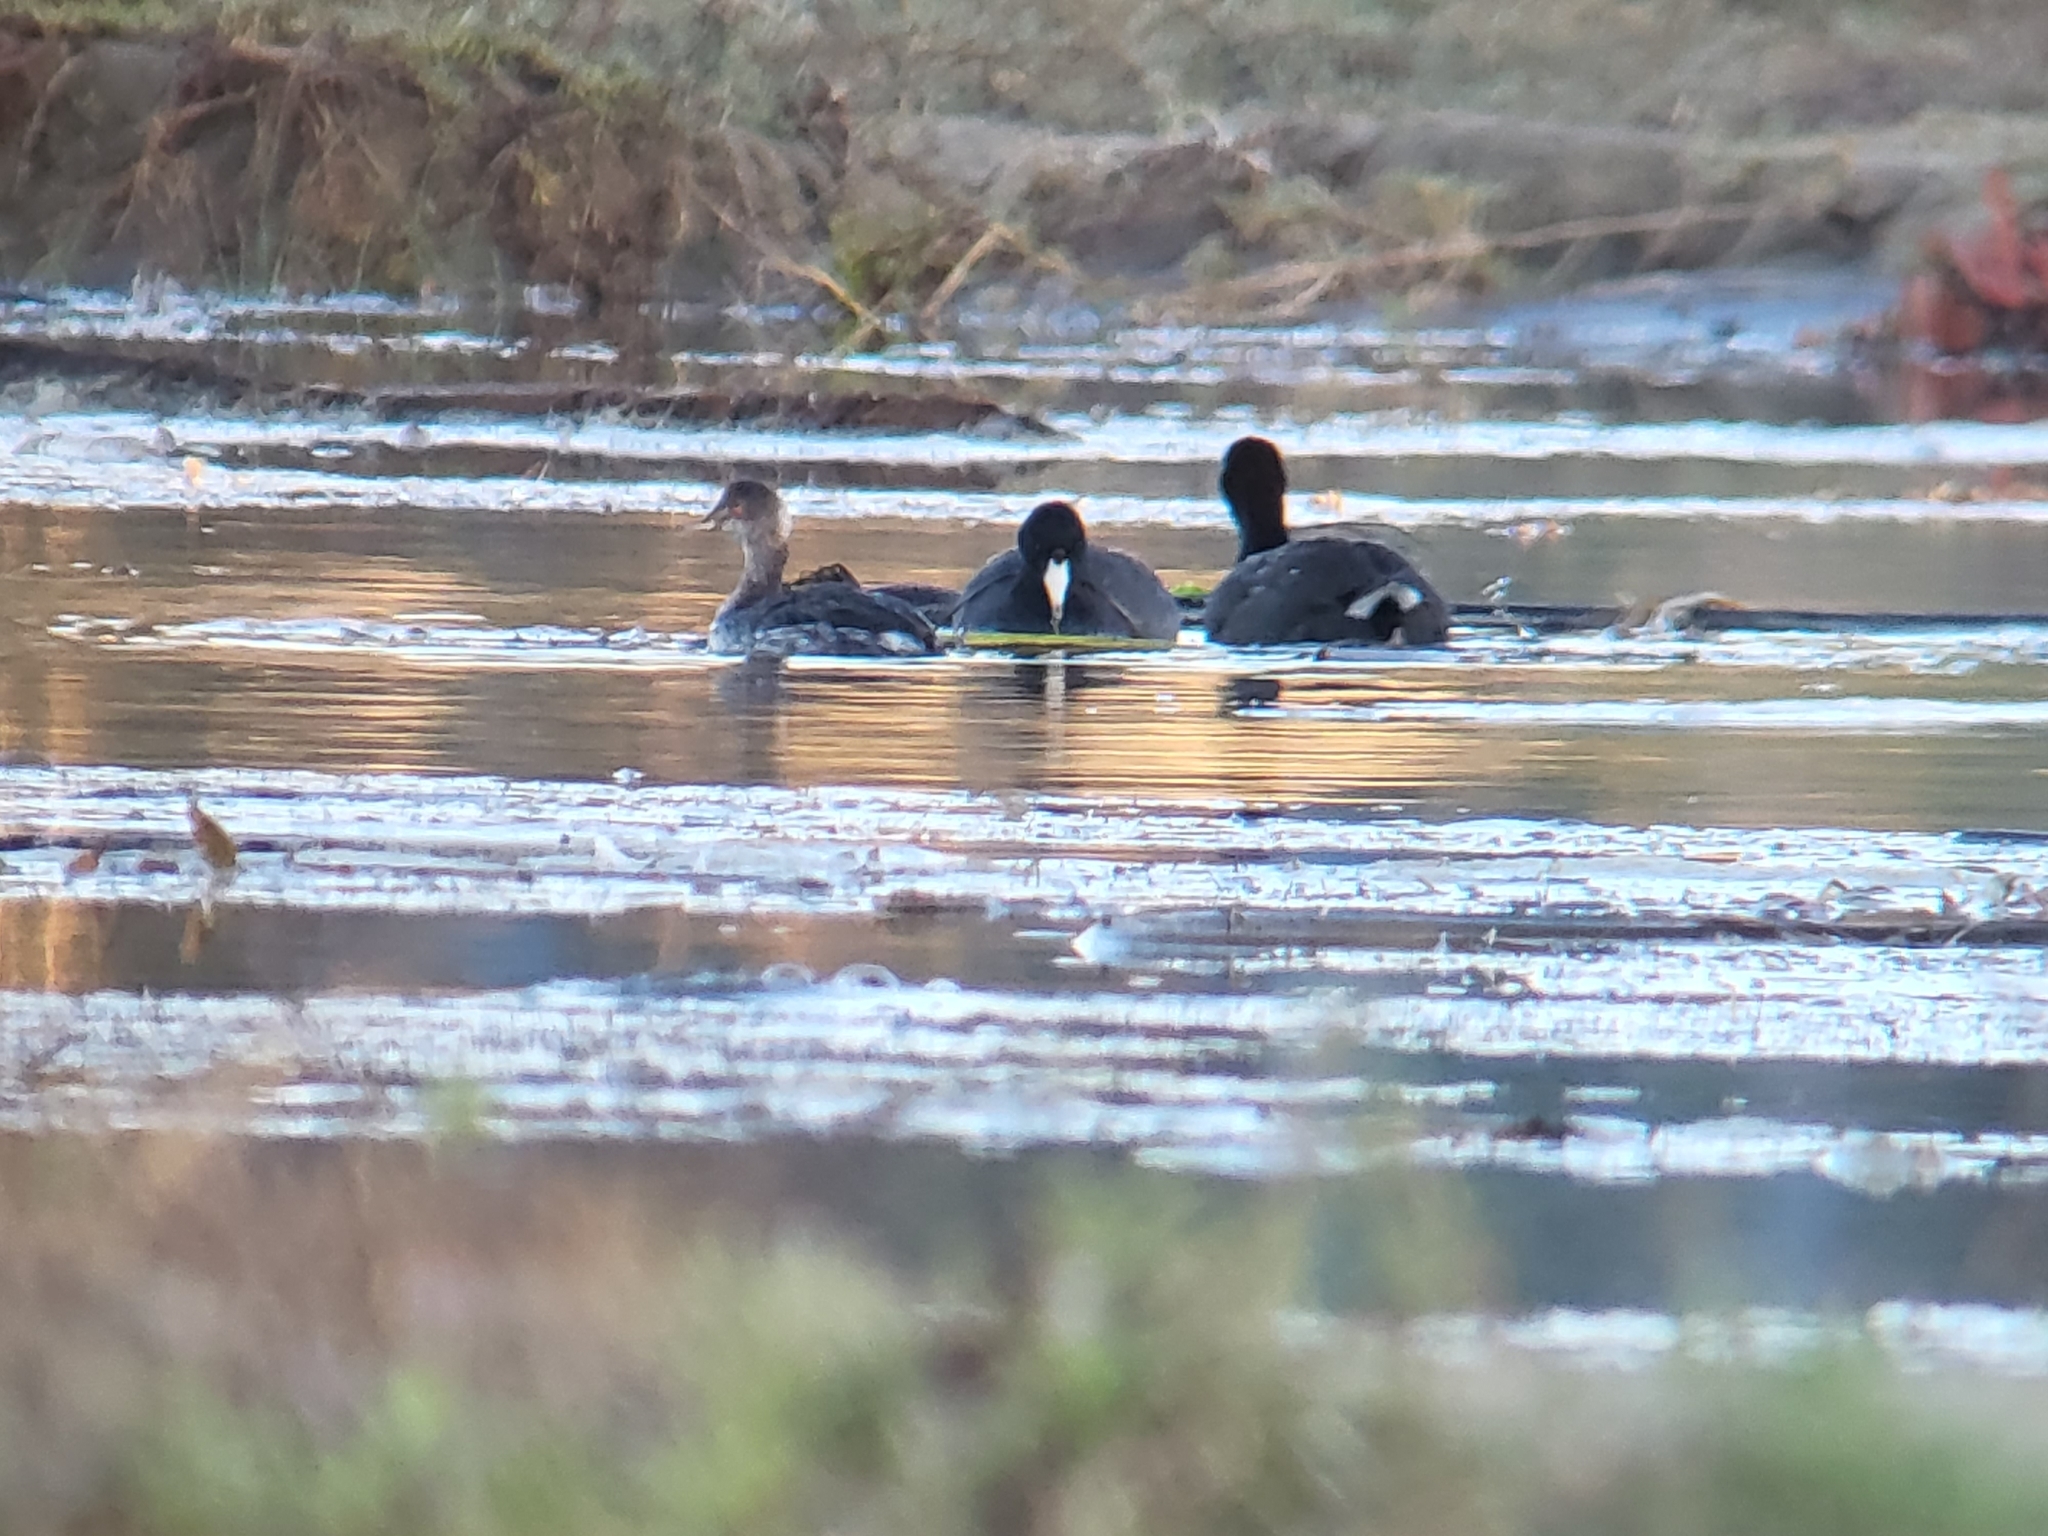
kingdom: Animalia
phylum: Chordata
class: Aves
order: Gruiformes
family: Rallidae
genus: Fulica
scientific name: Fulica americana
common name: American coot
